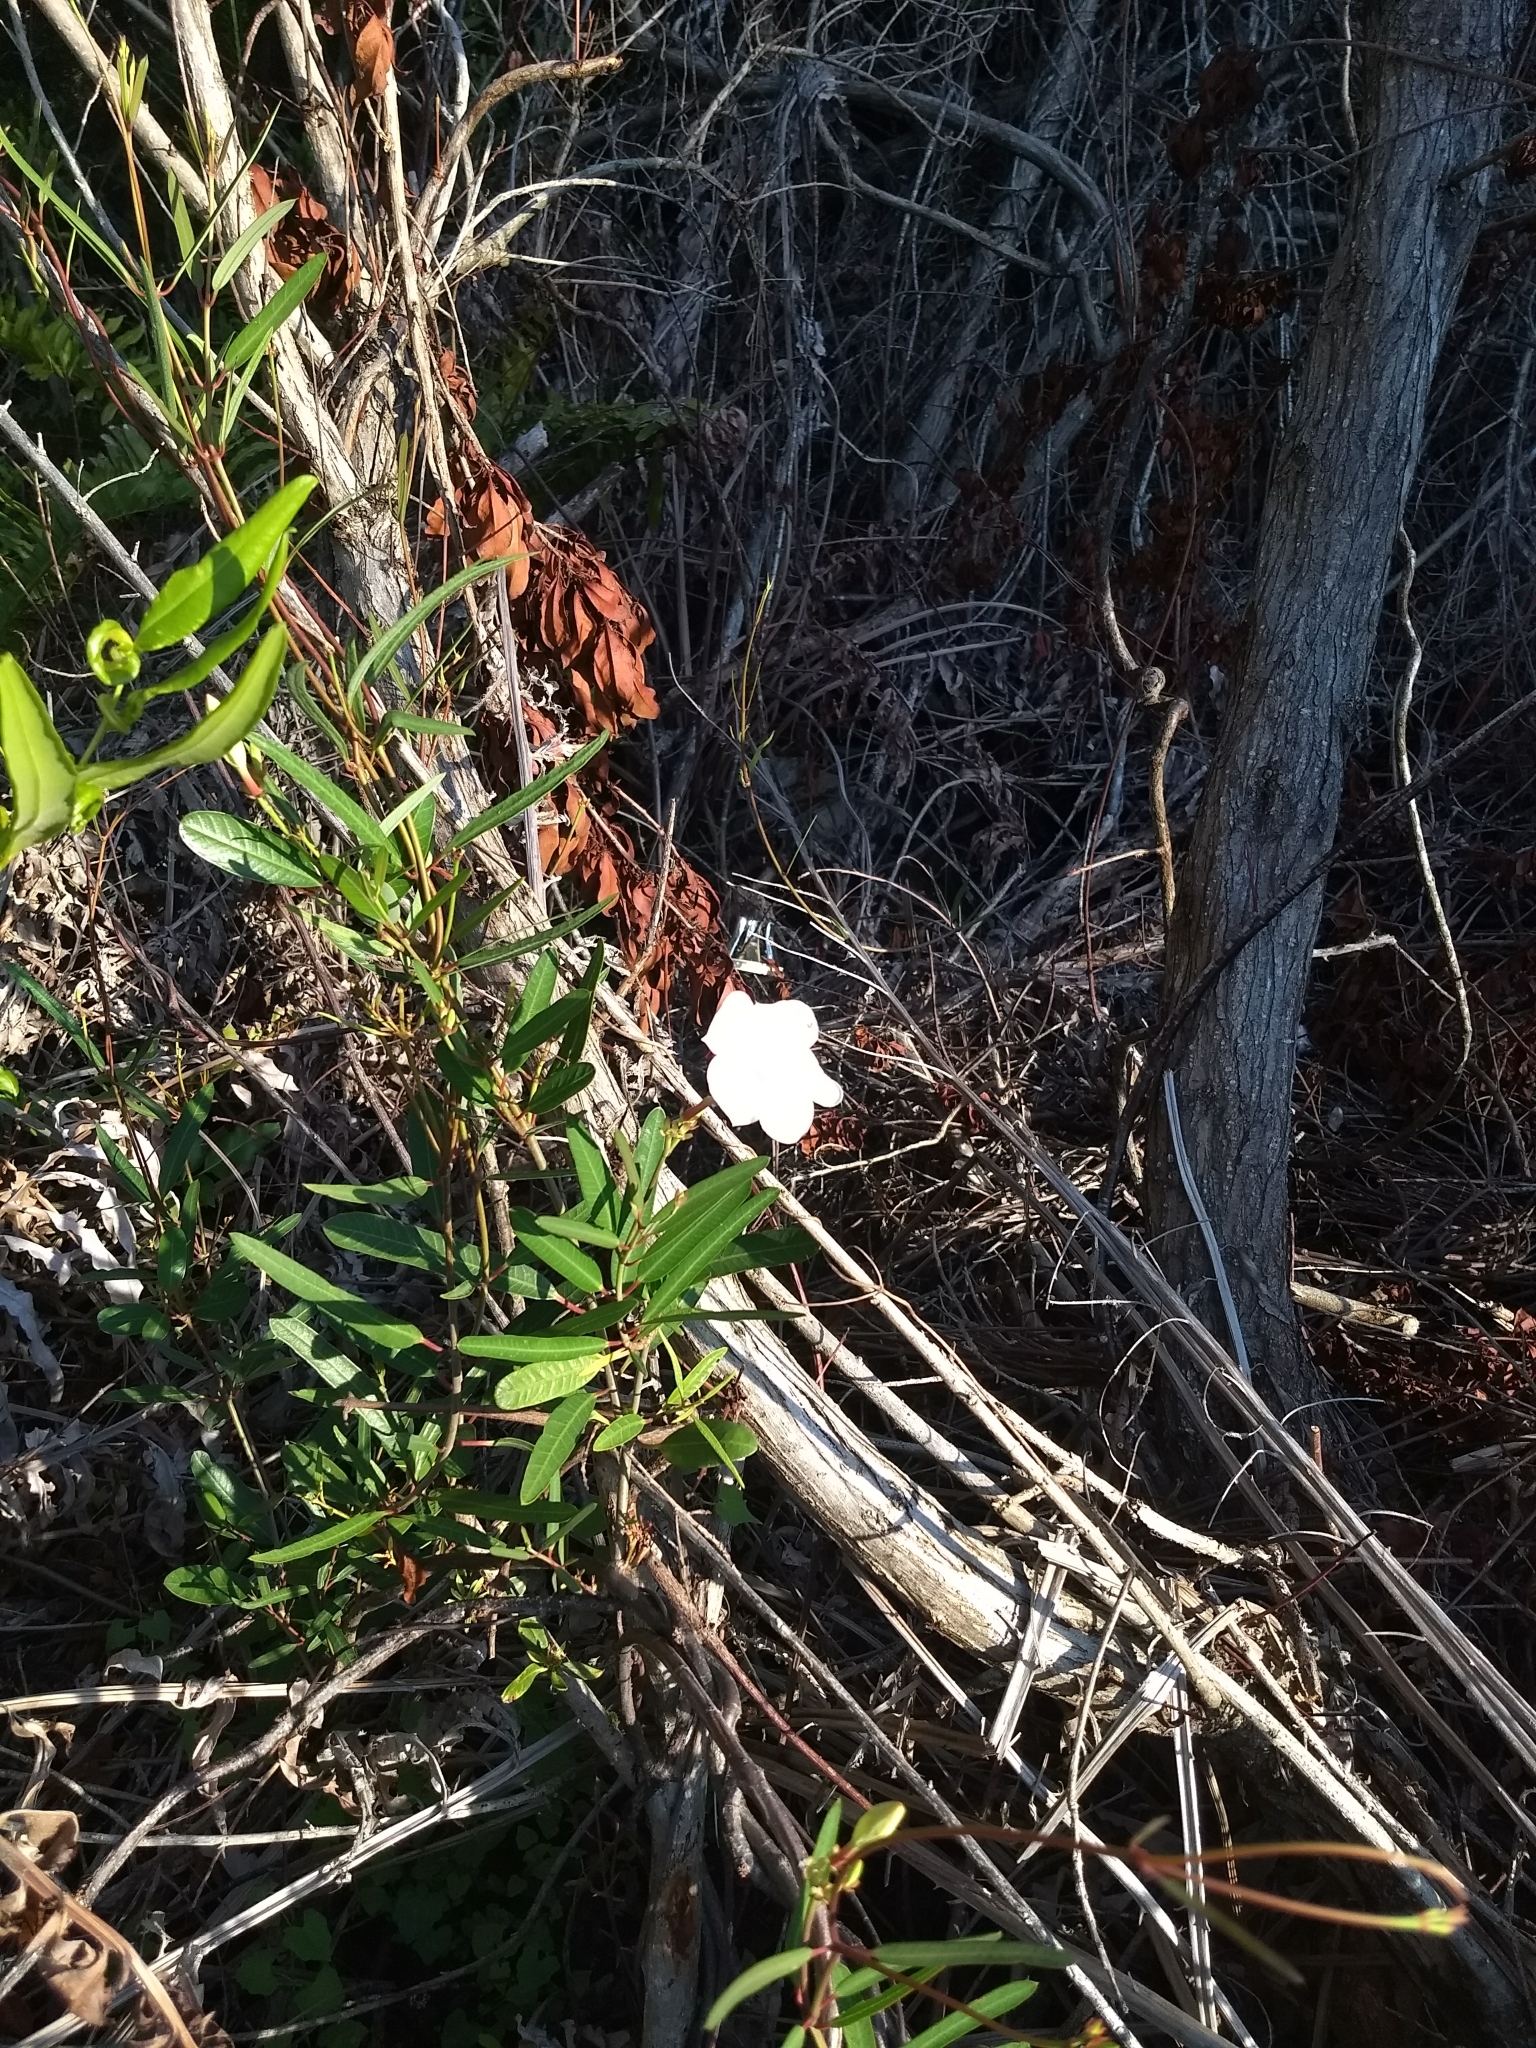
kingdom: Plantae
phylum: Tracheophyta
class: Magnoliopsida
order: Gentianales
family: Apocynaceae
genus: Rhabdadenia
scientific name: Rhabdadenia biflora
